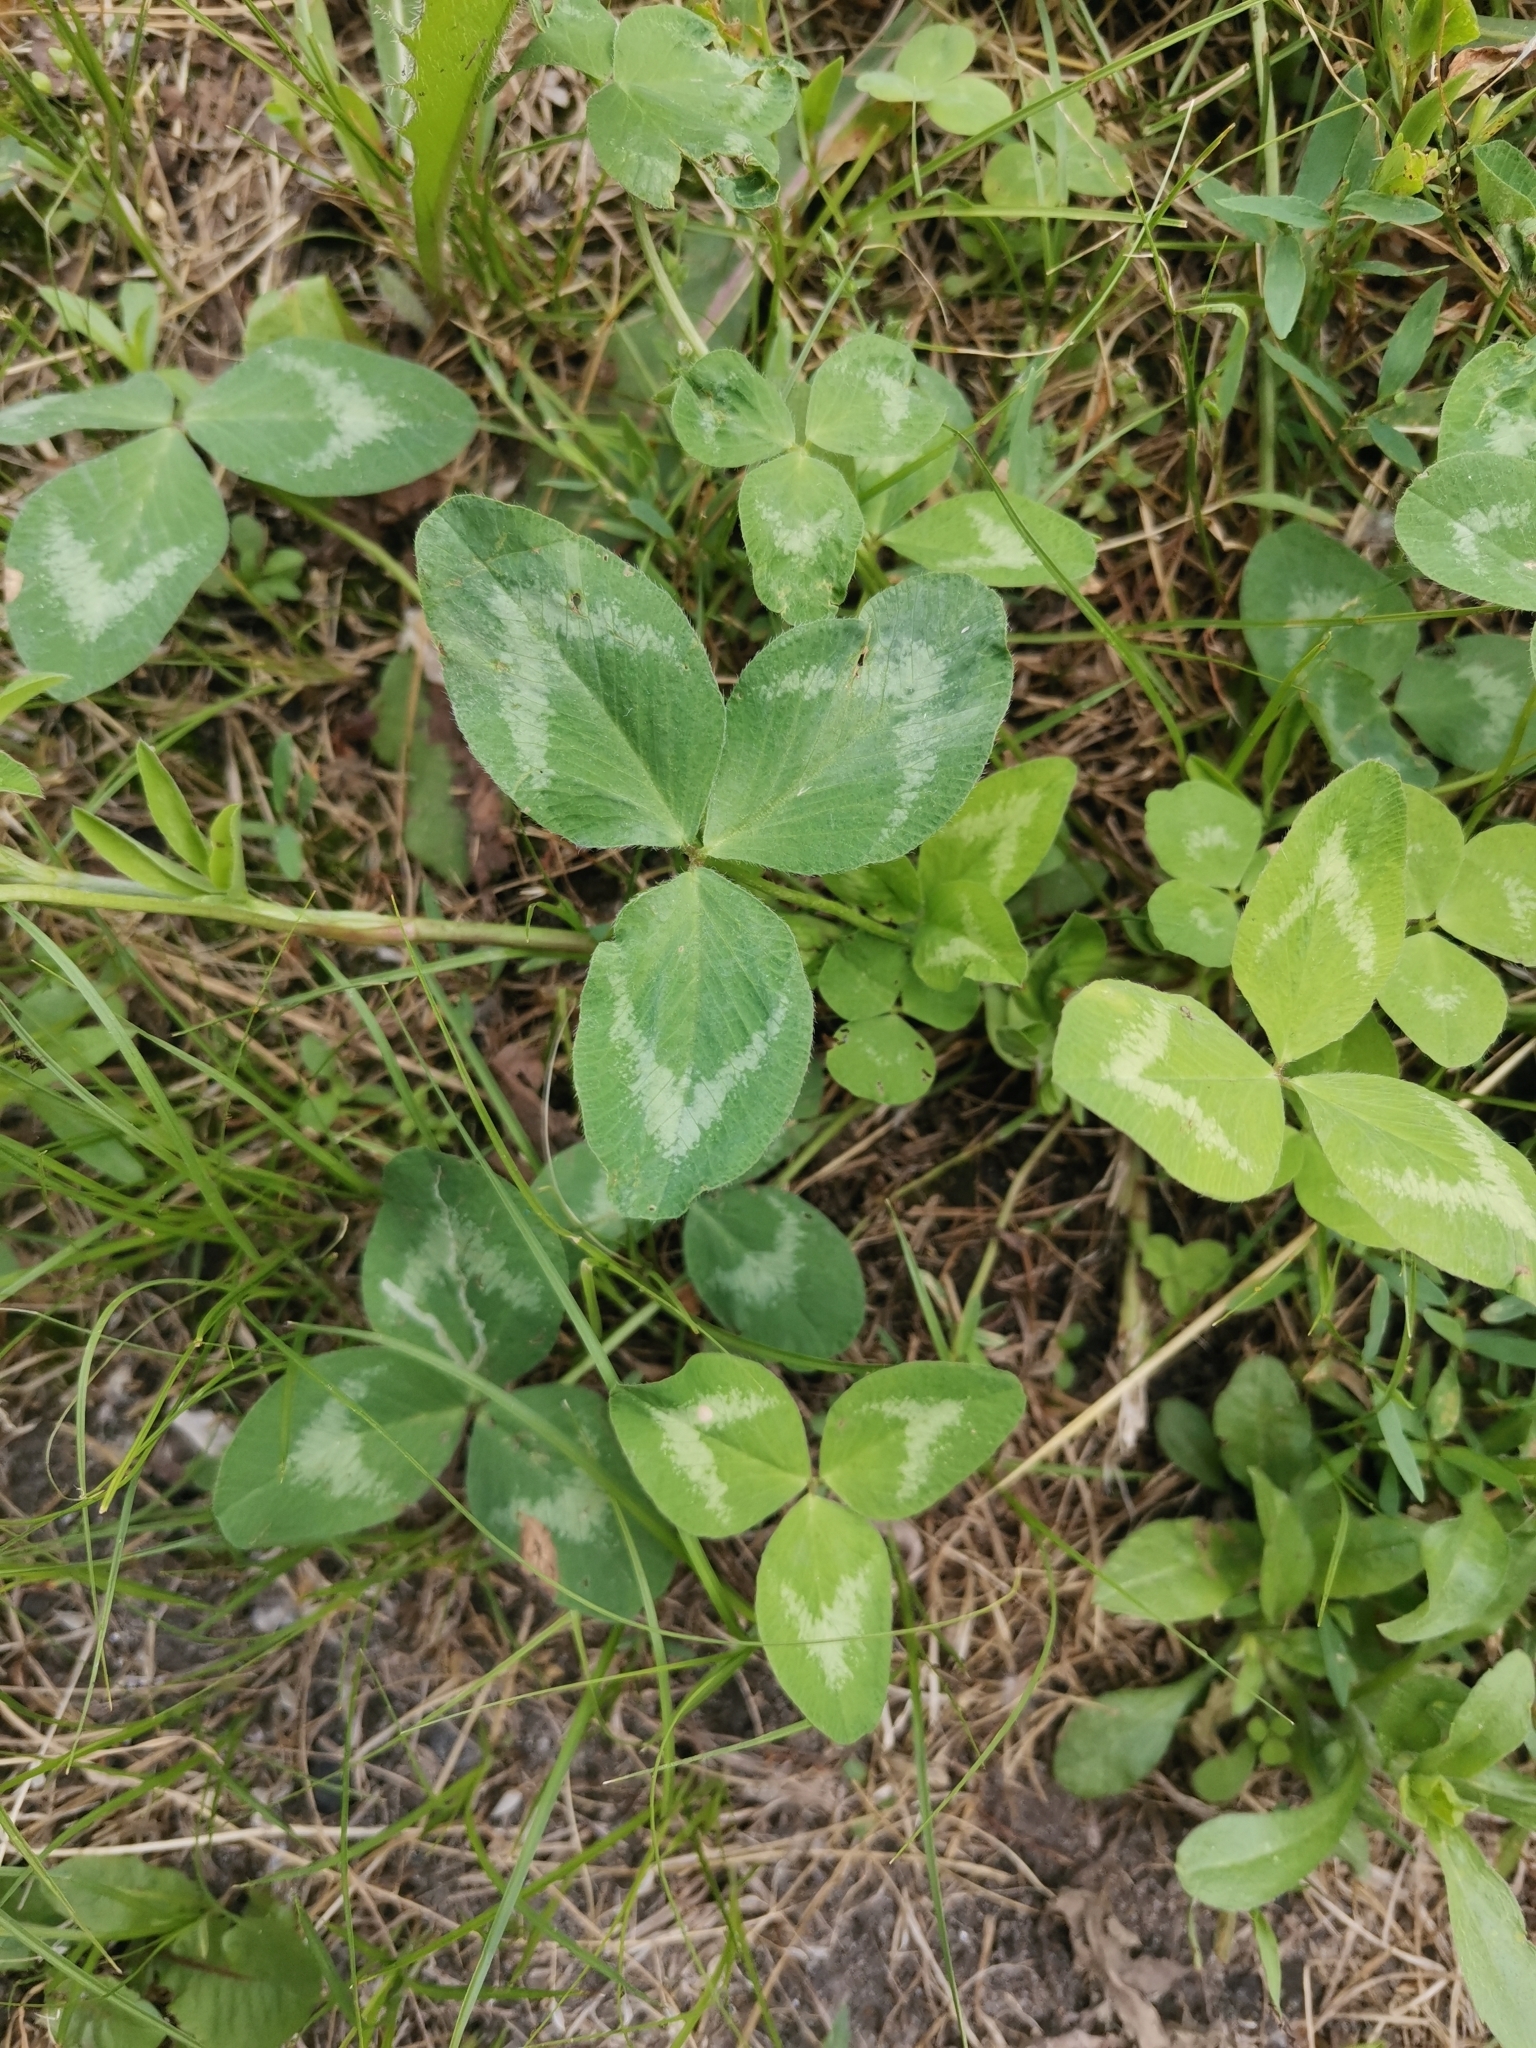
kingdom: Plantae
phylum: Tracheophyta
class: Magnoliopsida
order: Fabales
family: Fabaceae
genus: Trifolium
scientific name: Trifolium pratense
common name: Red clover
